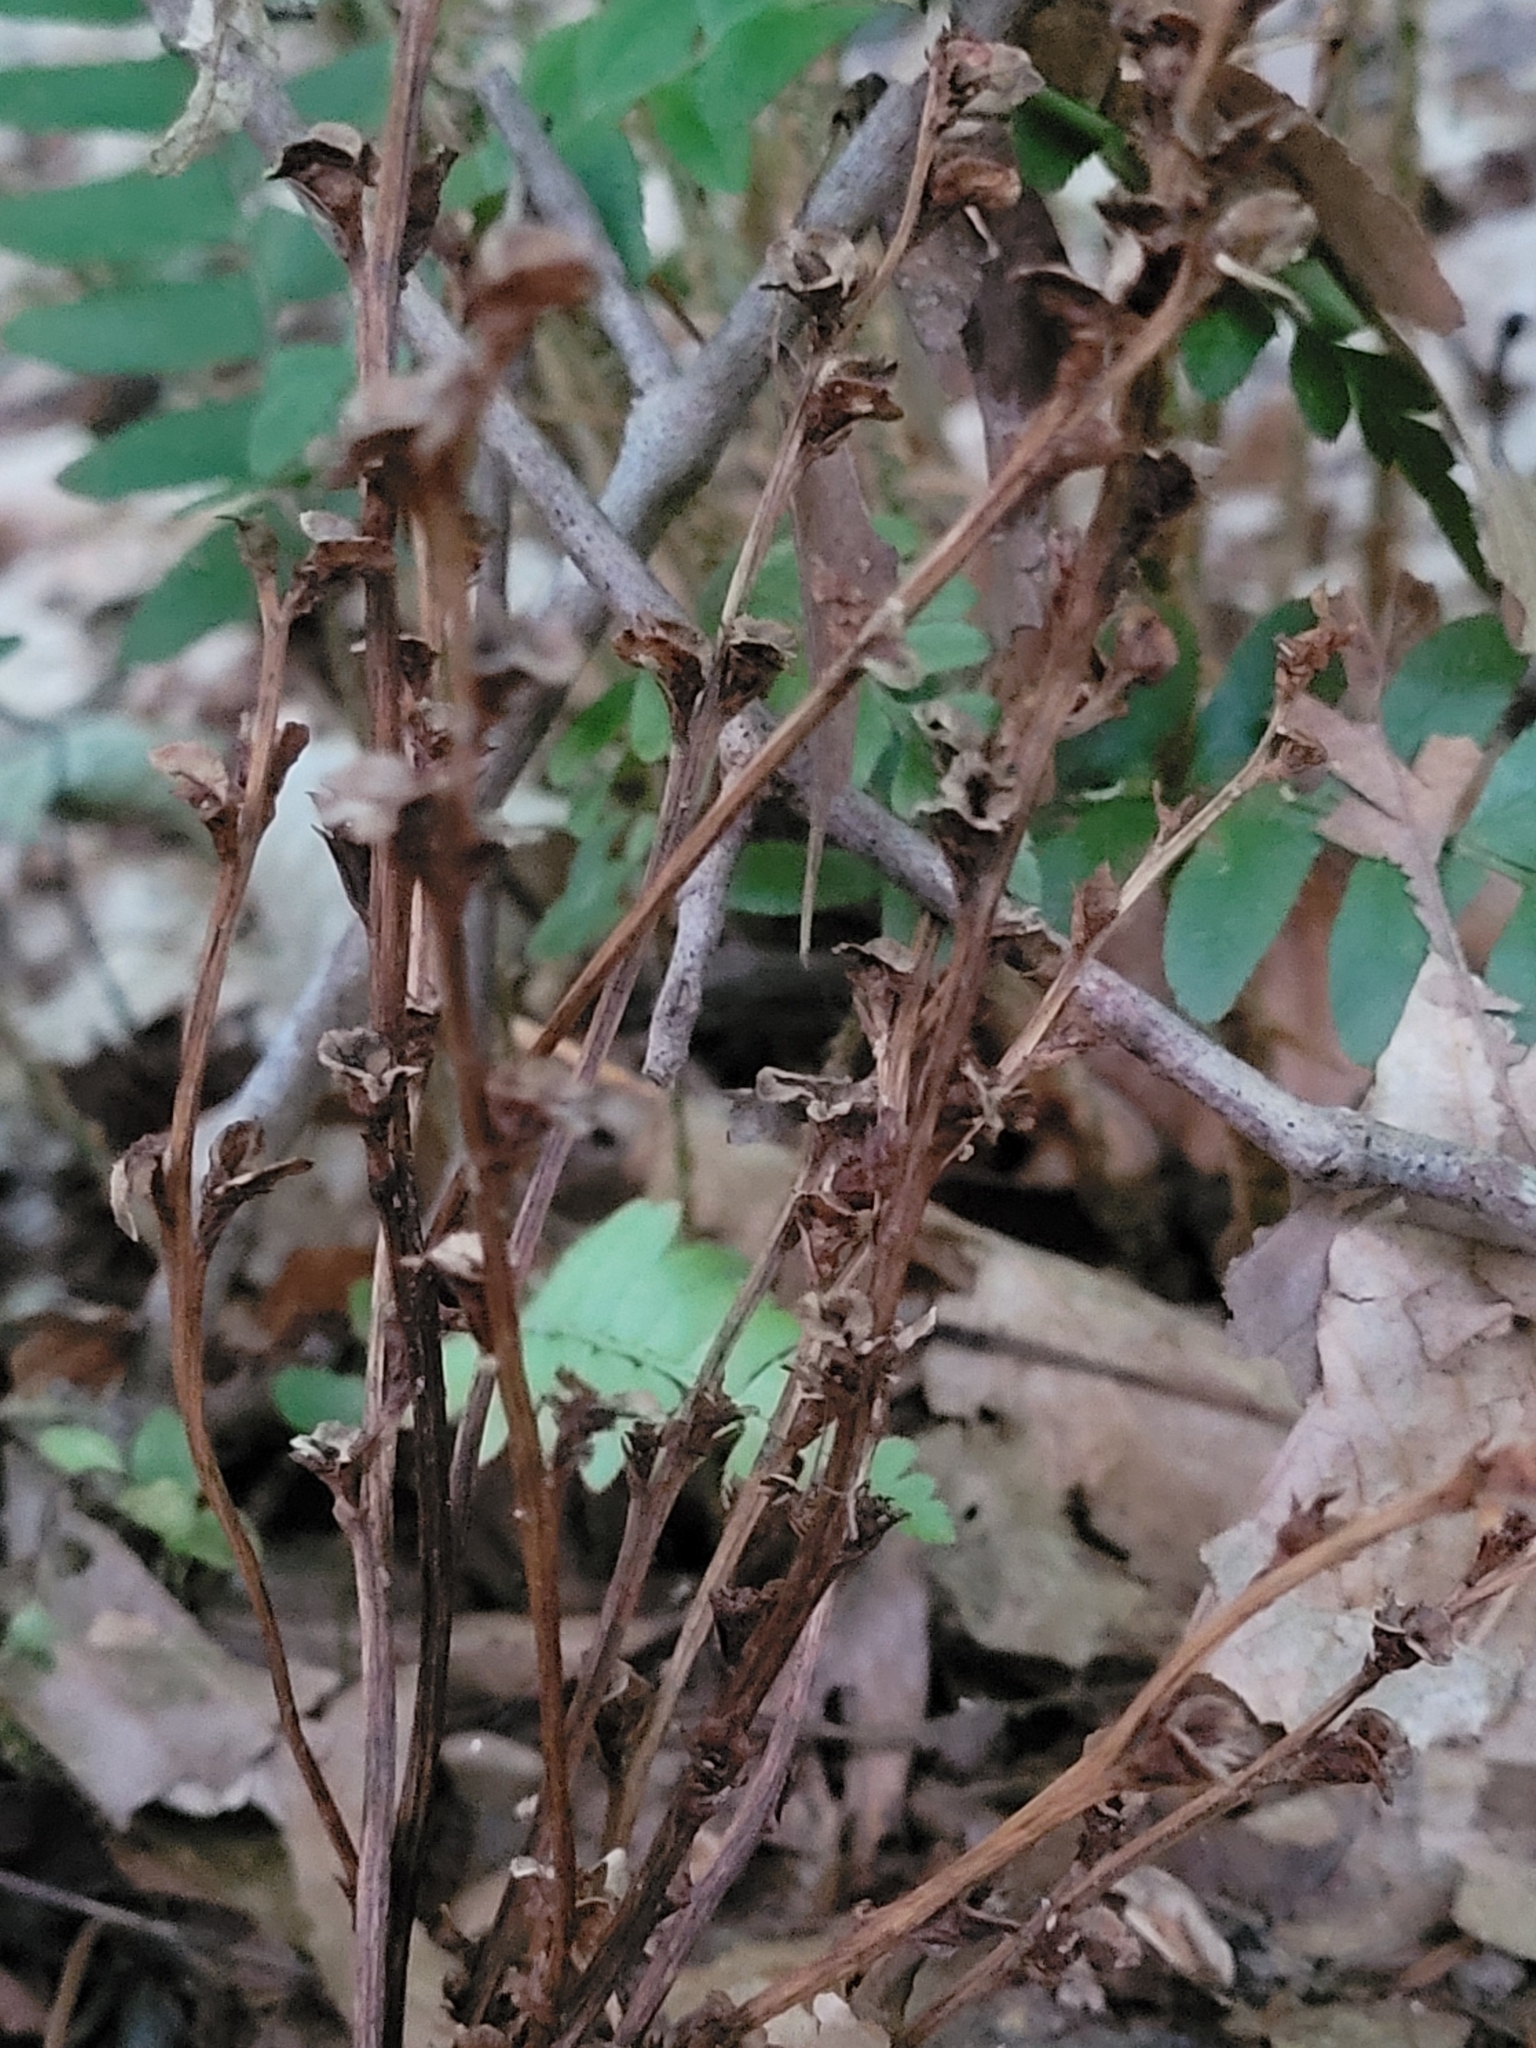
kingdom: Plantae
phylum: Tracheophyta
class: Magnoliopsida
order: Lamiales
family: Orobanchaceae
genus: Epifagus
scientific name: Epifagus virginiana
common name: Beechdrops
